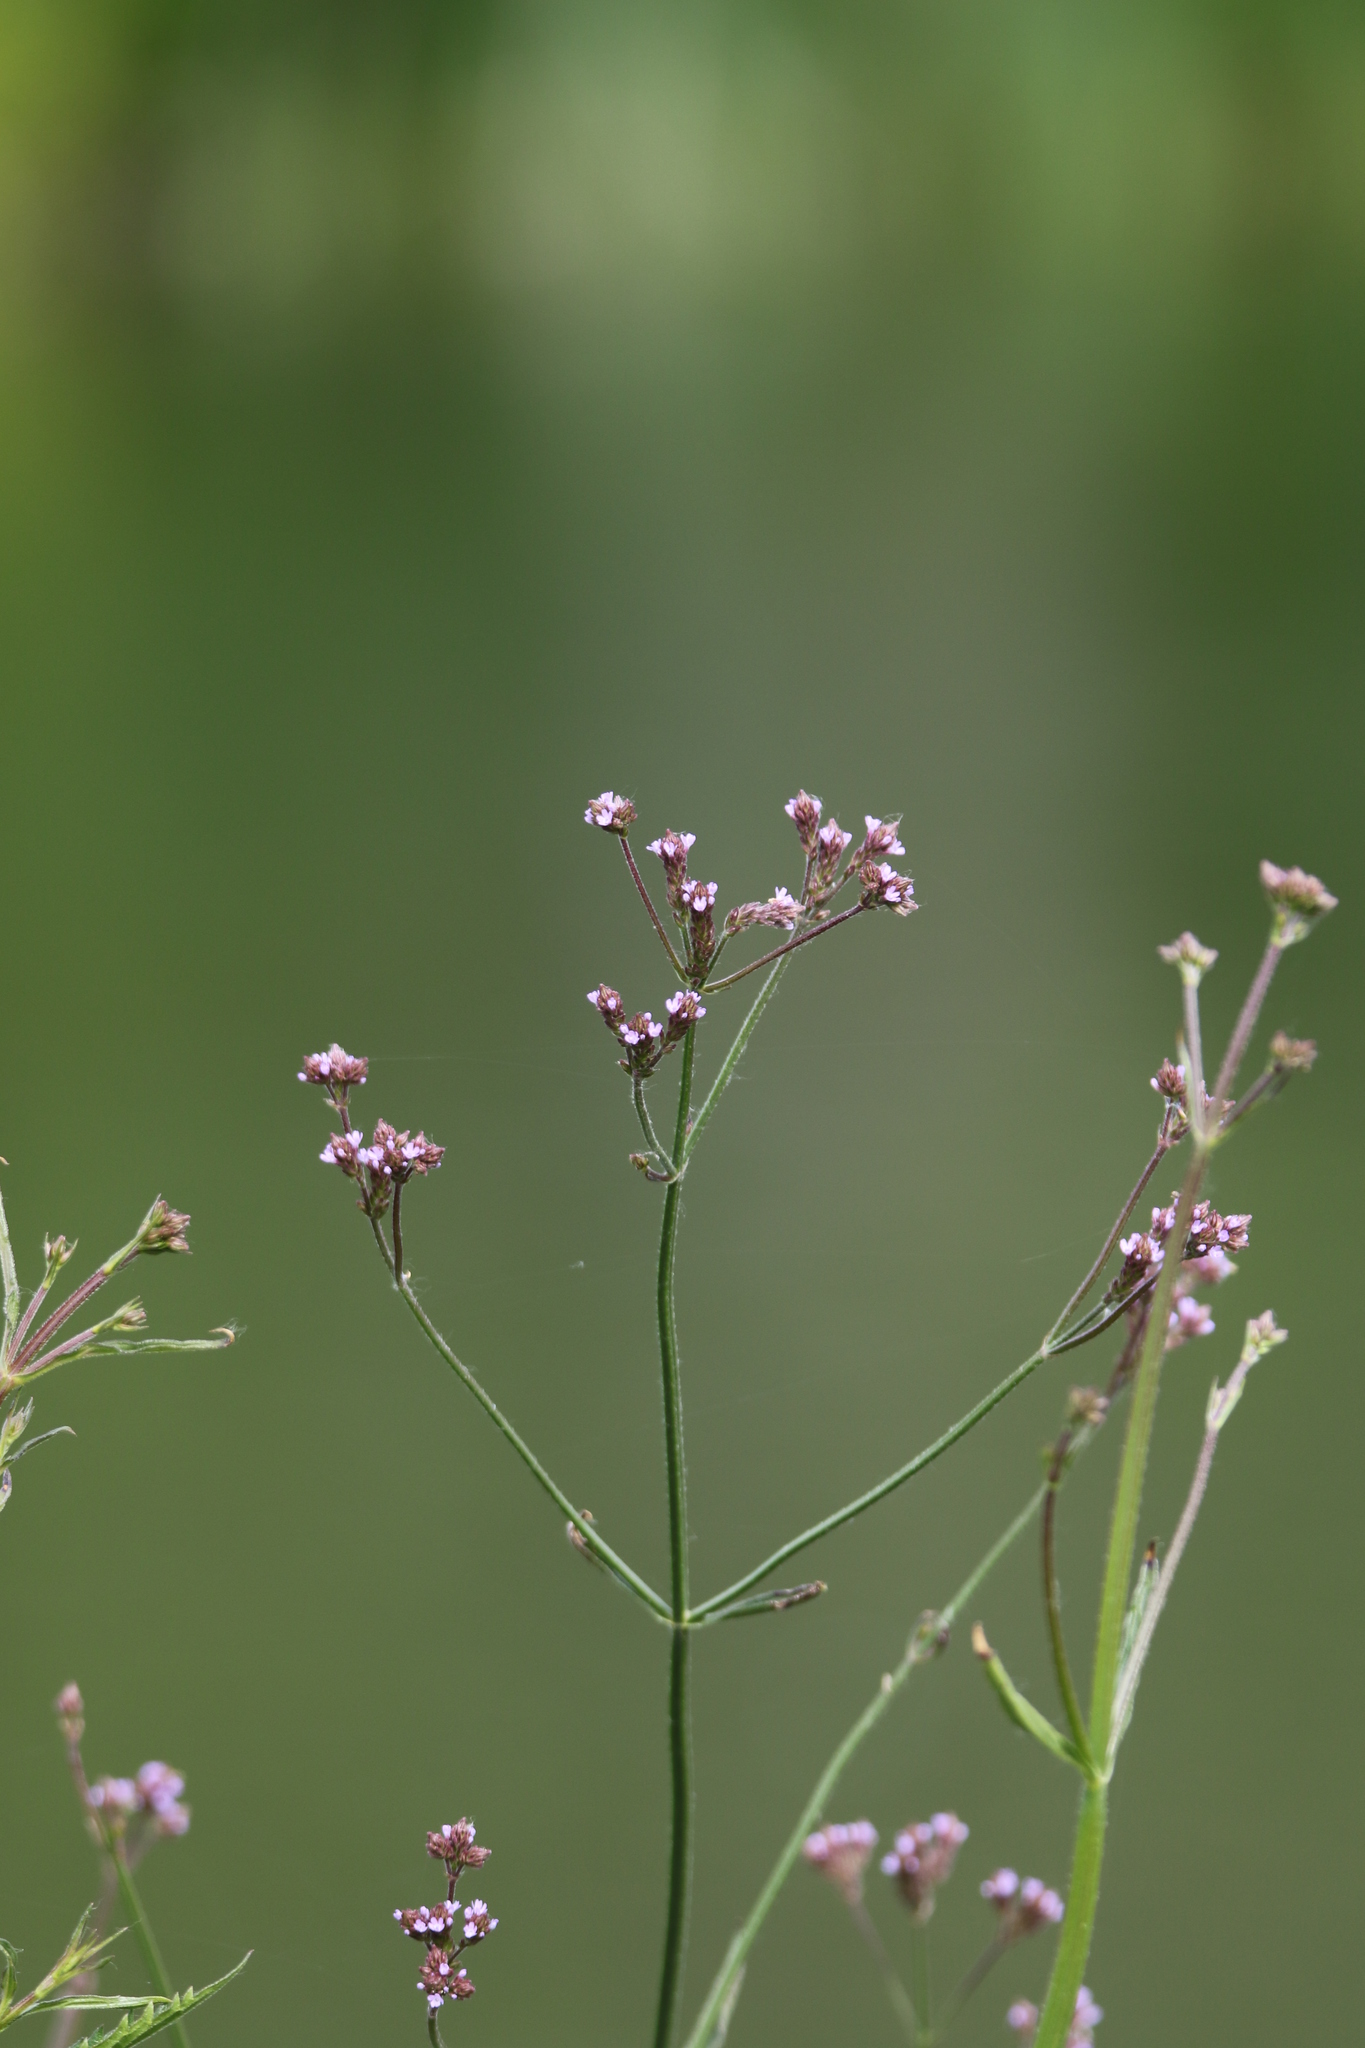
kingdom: Plantae
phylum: Tracheophyta
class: Magnoliopsida
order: Lamiales
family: Verbenaceae
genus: Verbena
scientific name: Verbena brasiliensis
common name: Brazilian vervain
